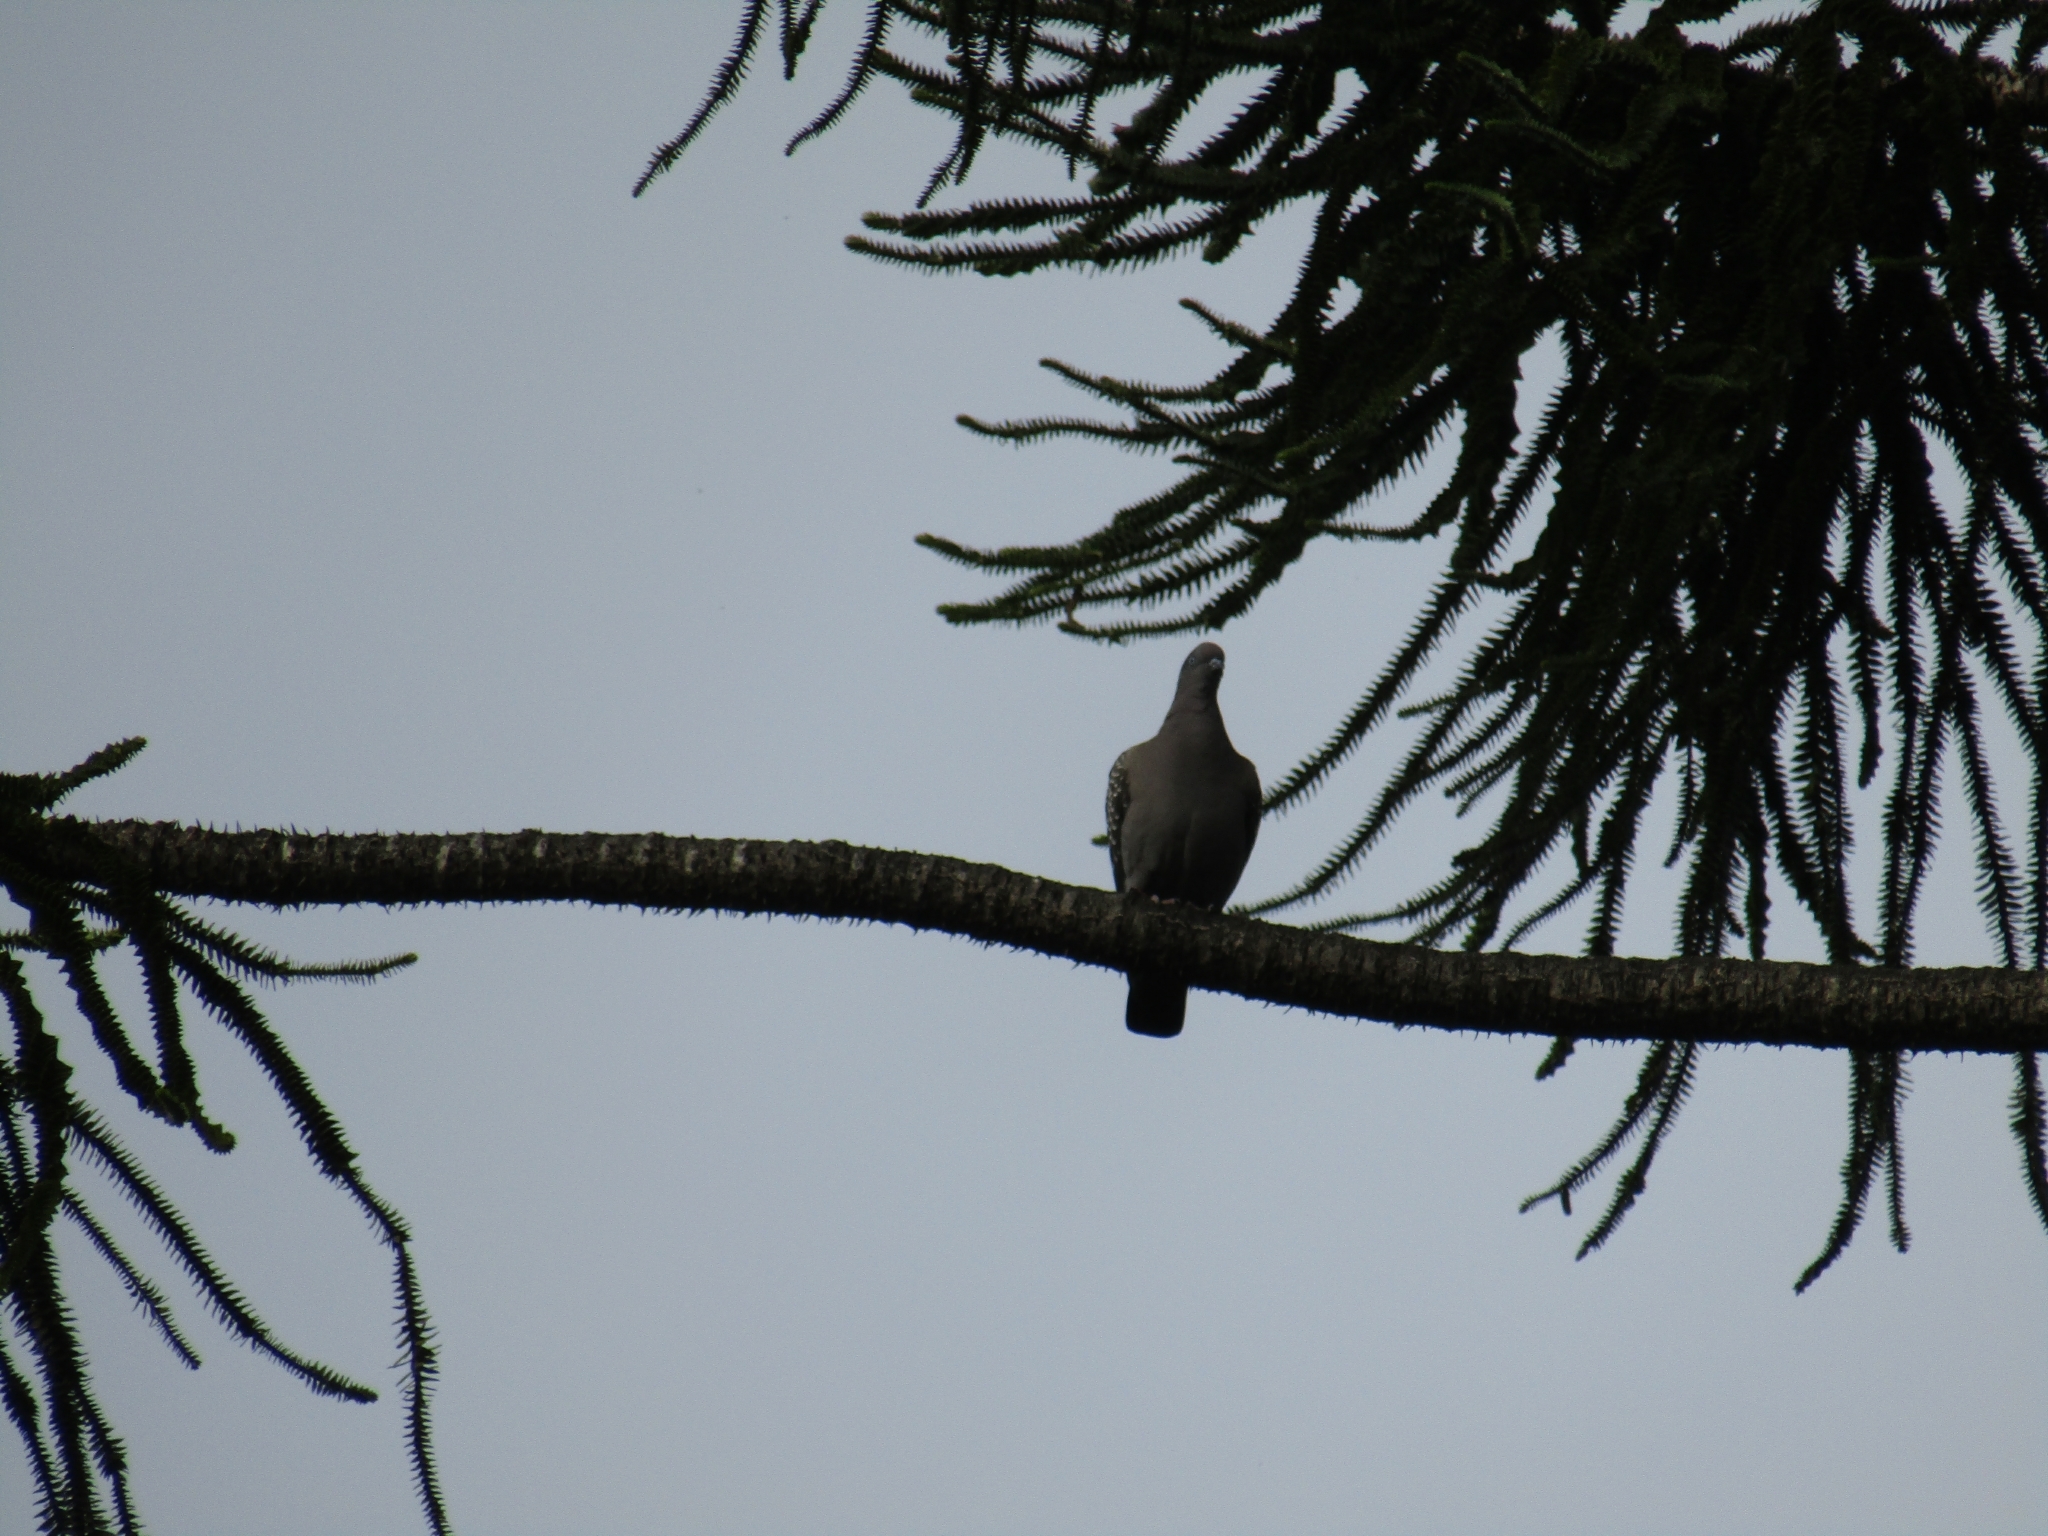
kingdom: Animalia
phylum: Chordata
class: Aves
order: Columbiformes
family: Columbidae
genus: Patagioenas
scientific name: Patagioenas maculosa
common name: Spot-winged pigeon
